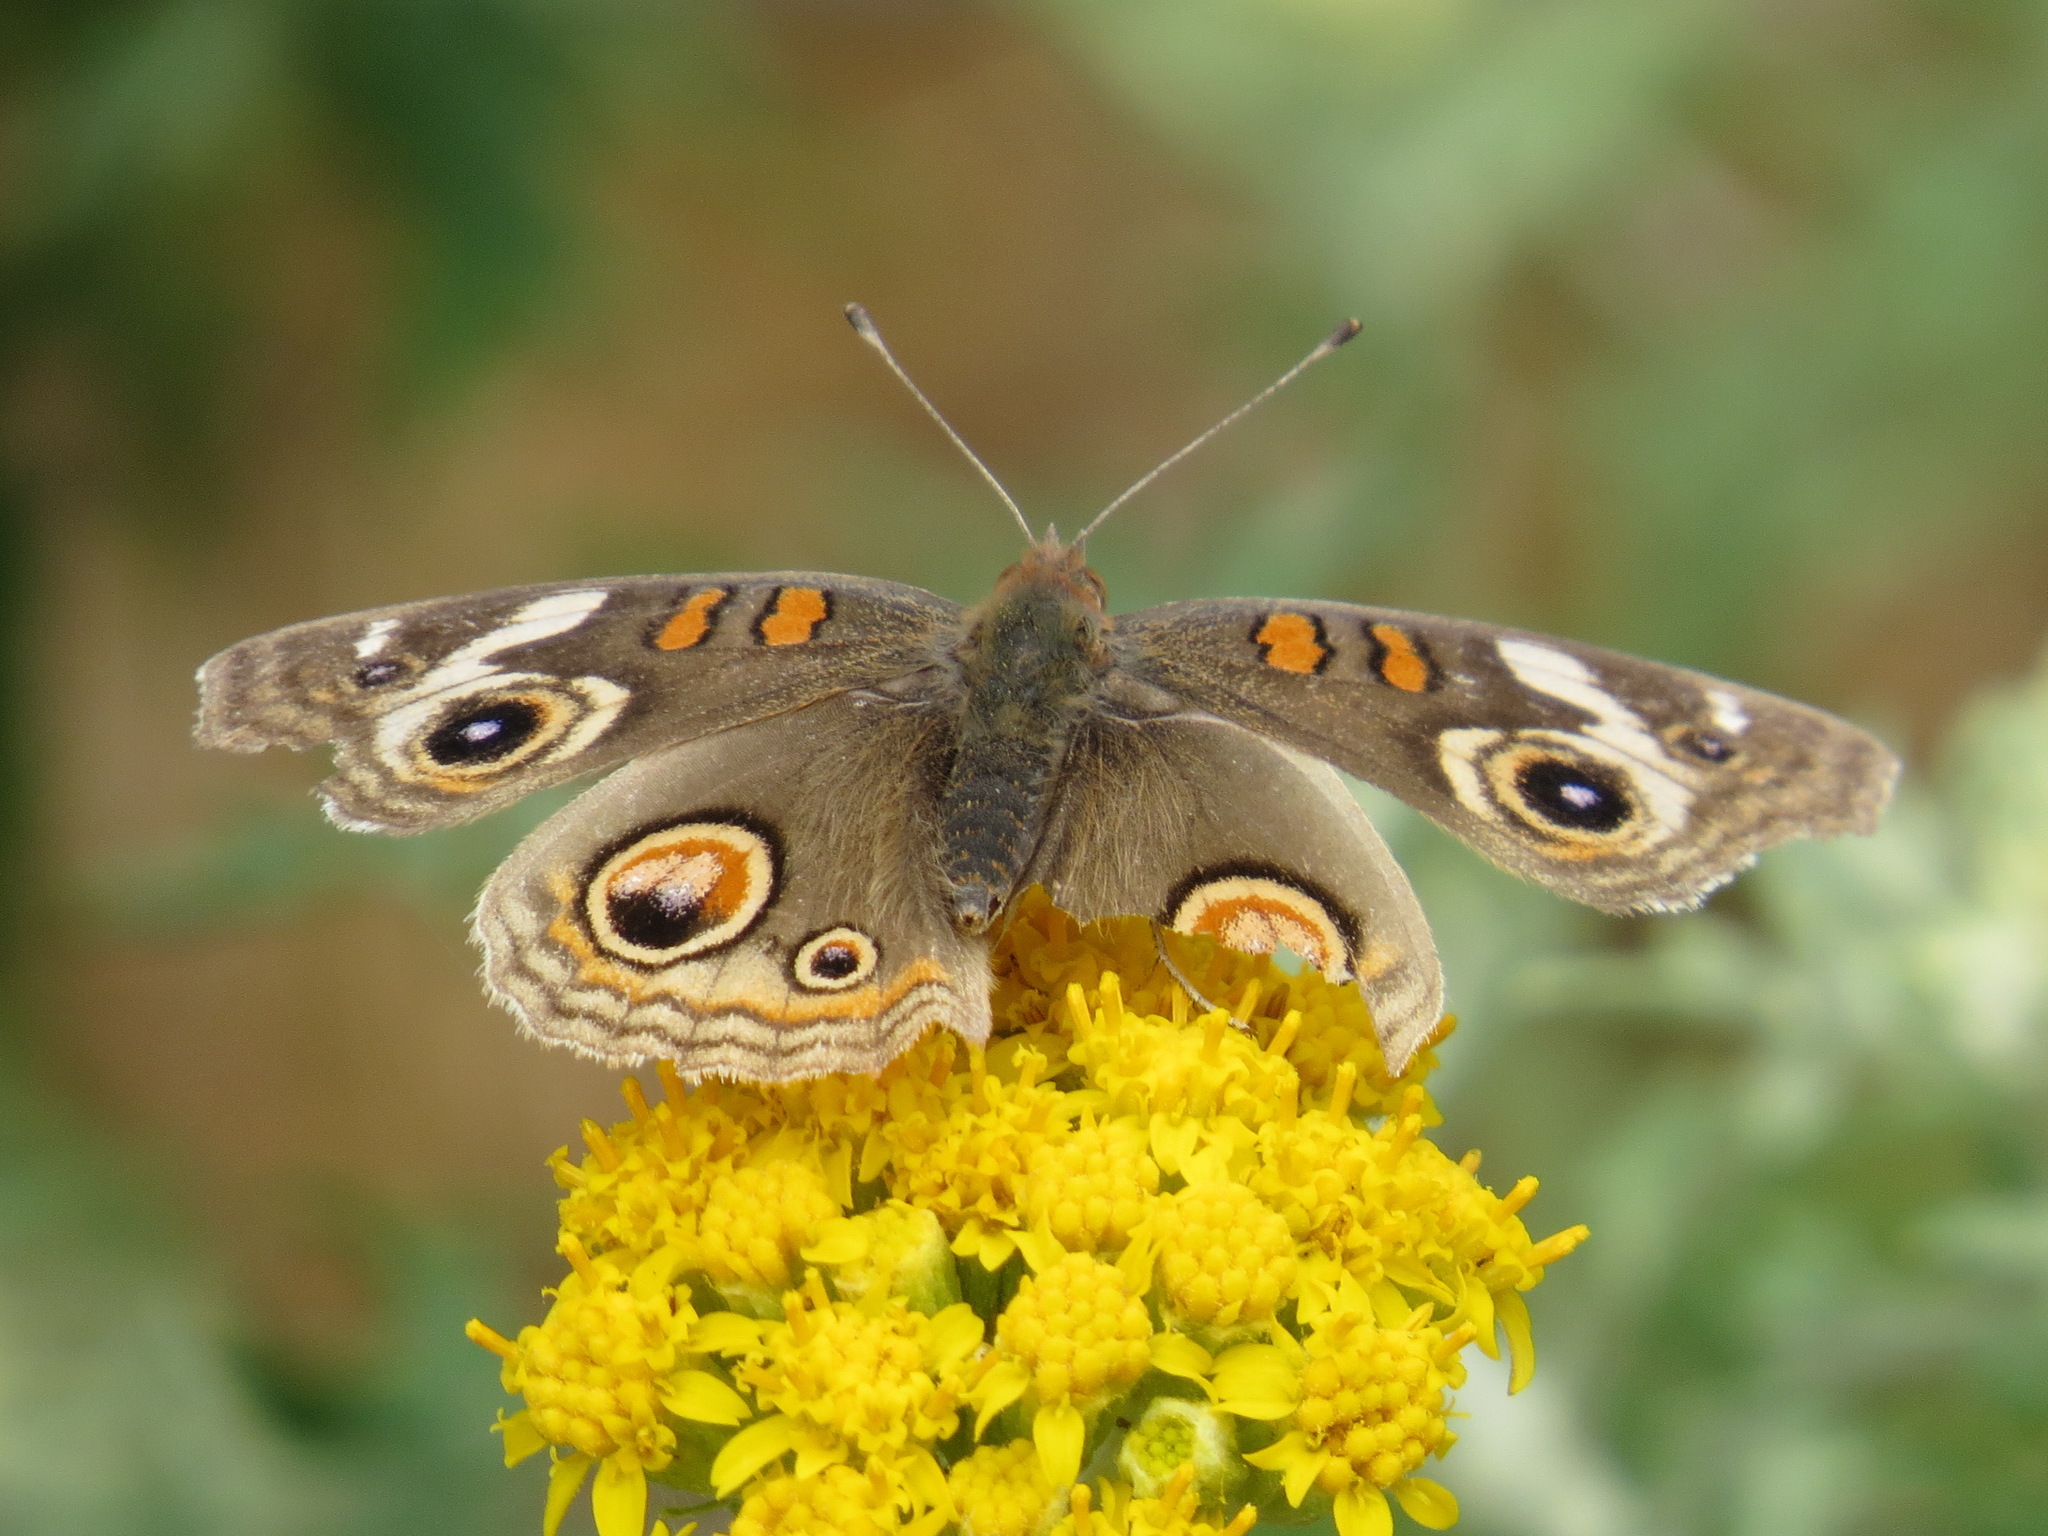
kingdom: Animalia
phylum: Arthropoda
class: Insecta
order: Lepidoptera
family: Nymphalidae
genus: Junonia
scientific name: Junonia grisea
